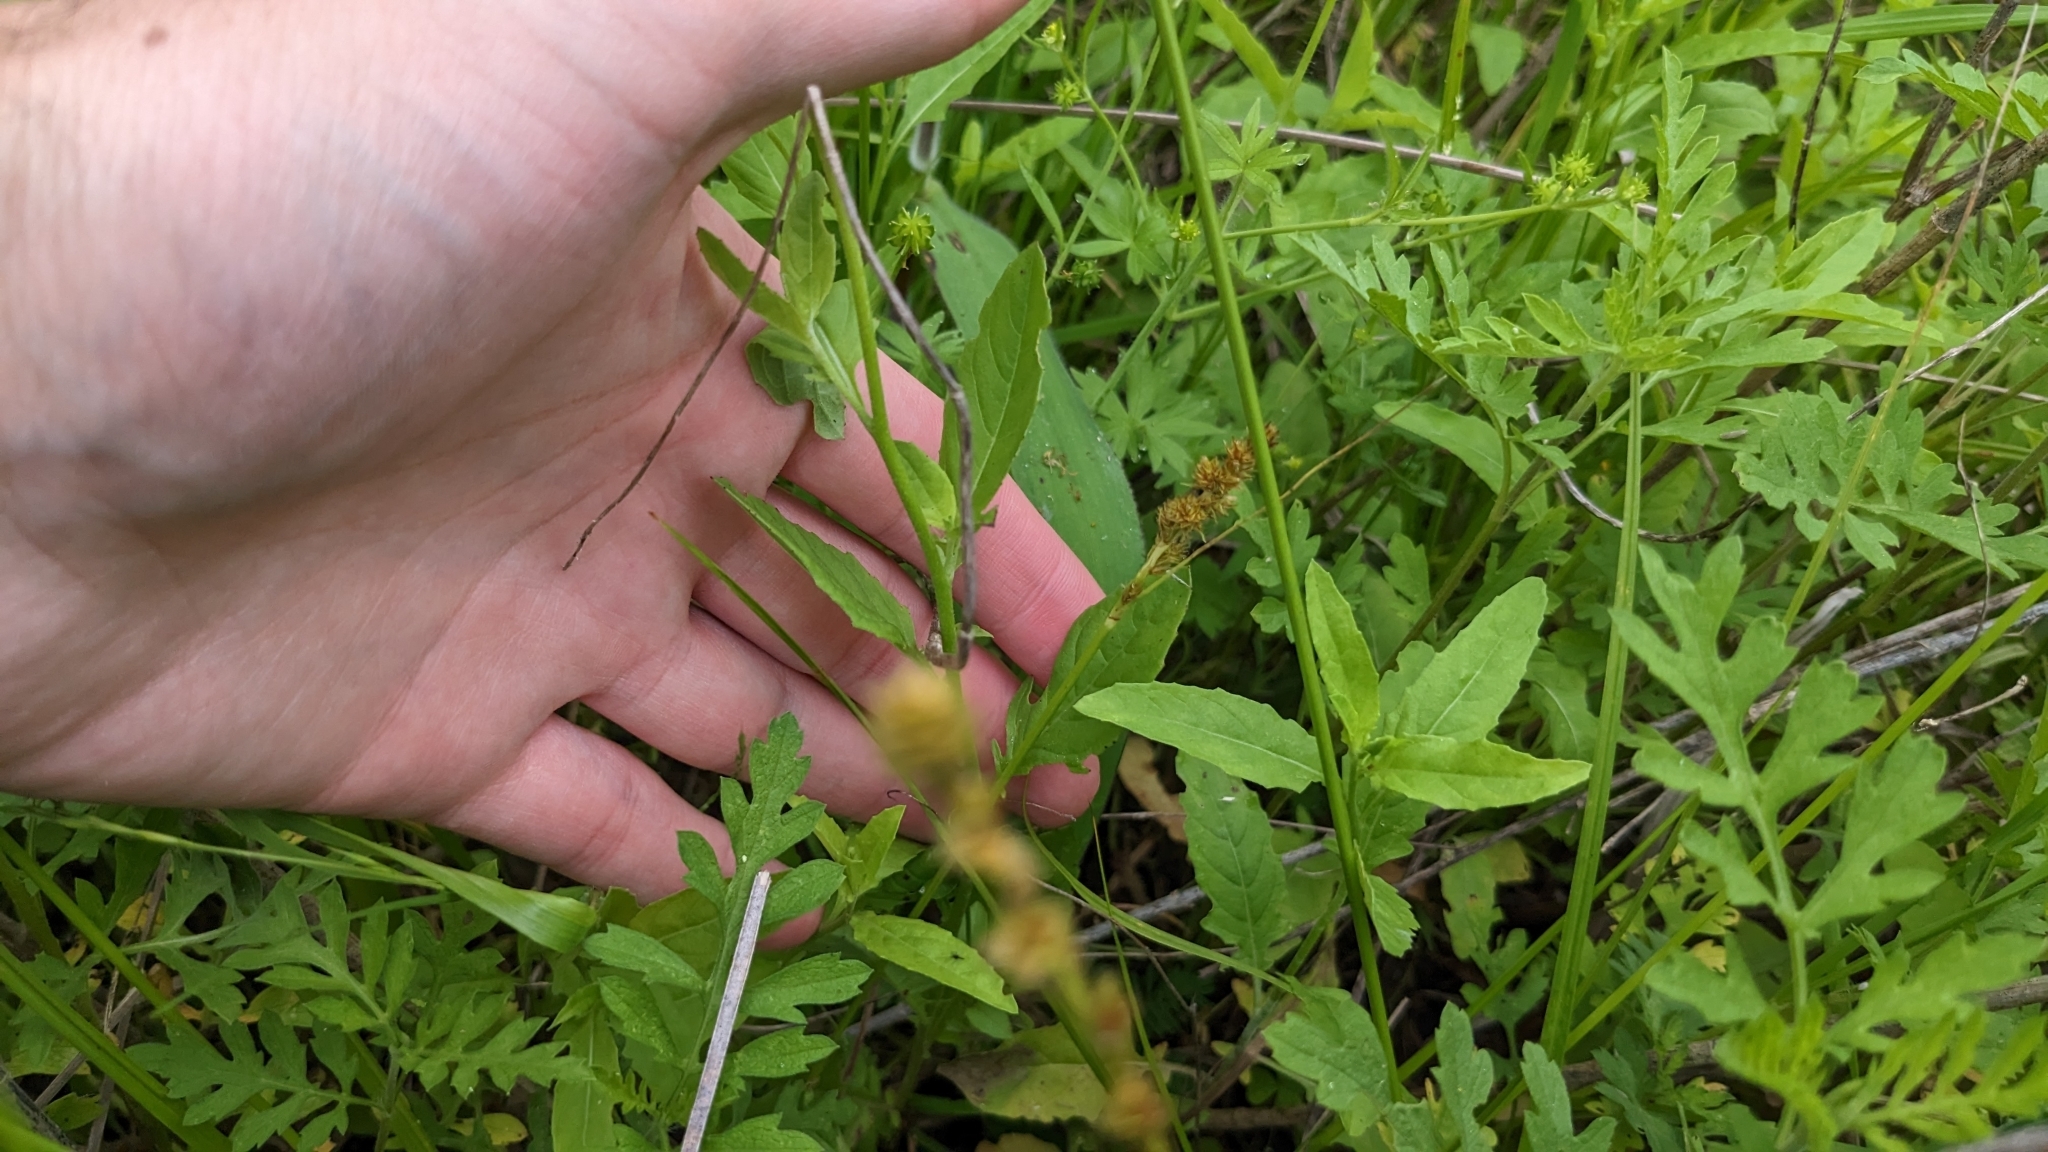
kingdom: Plantae
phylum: Tracheophyta
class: Magnoliopsida
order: Myrtales
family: Onagraceae
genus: Oenothera
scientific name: Oenothera speciosa
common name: White evening-primrose
